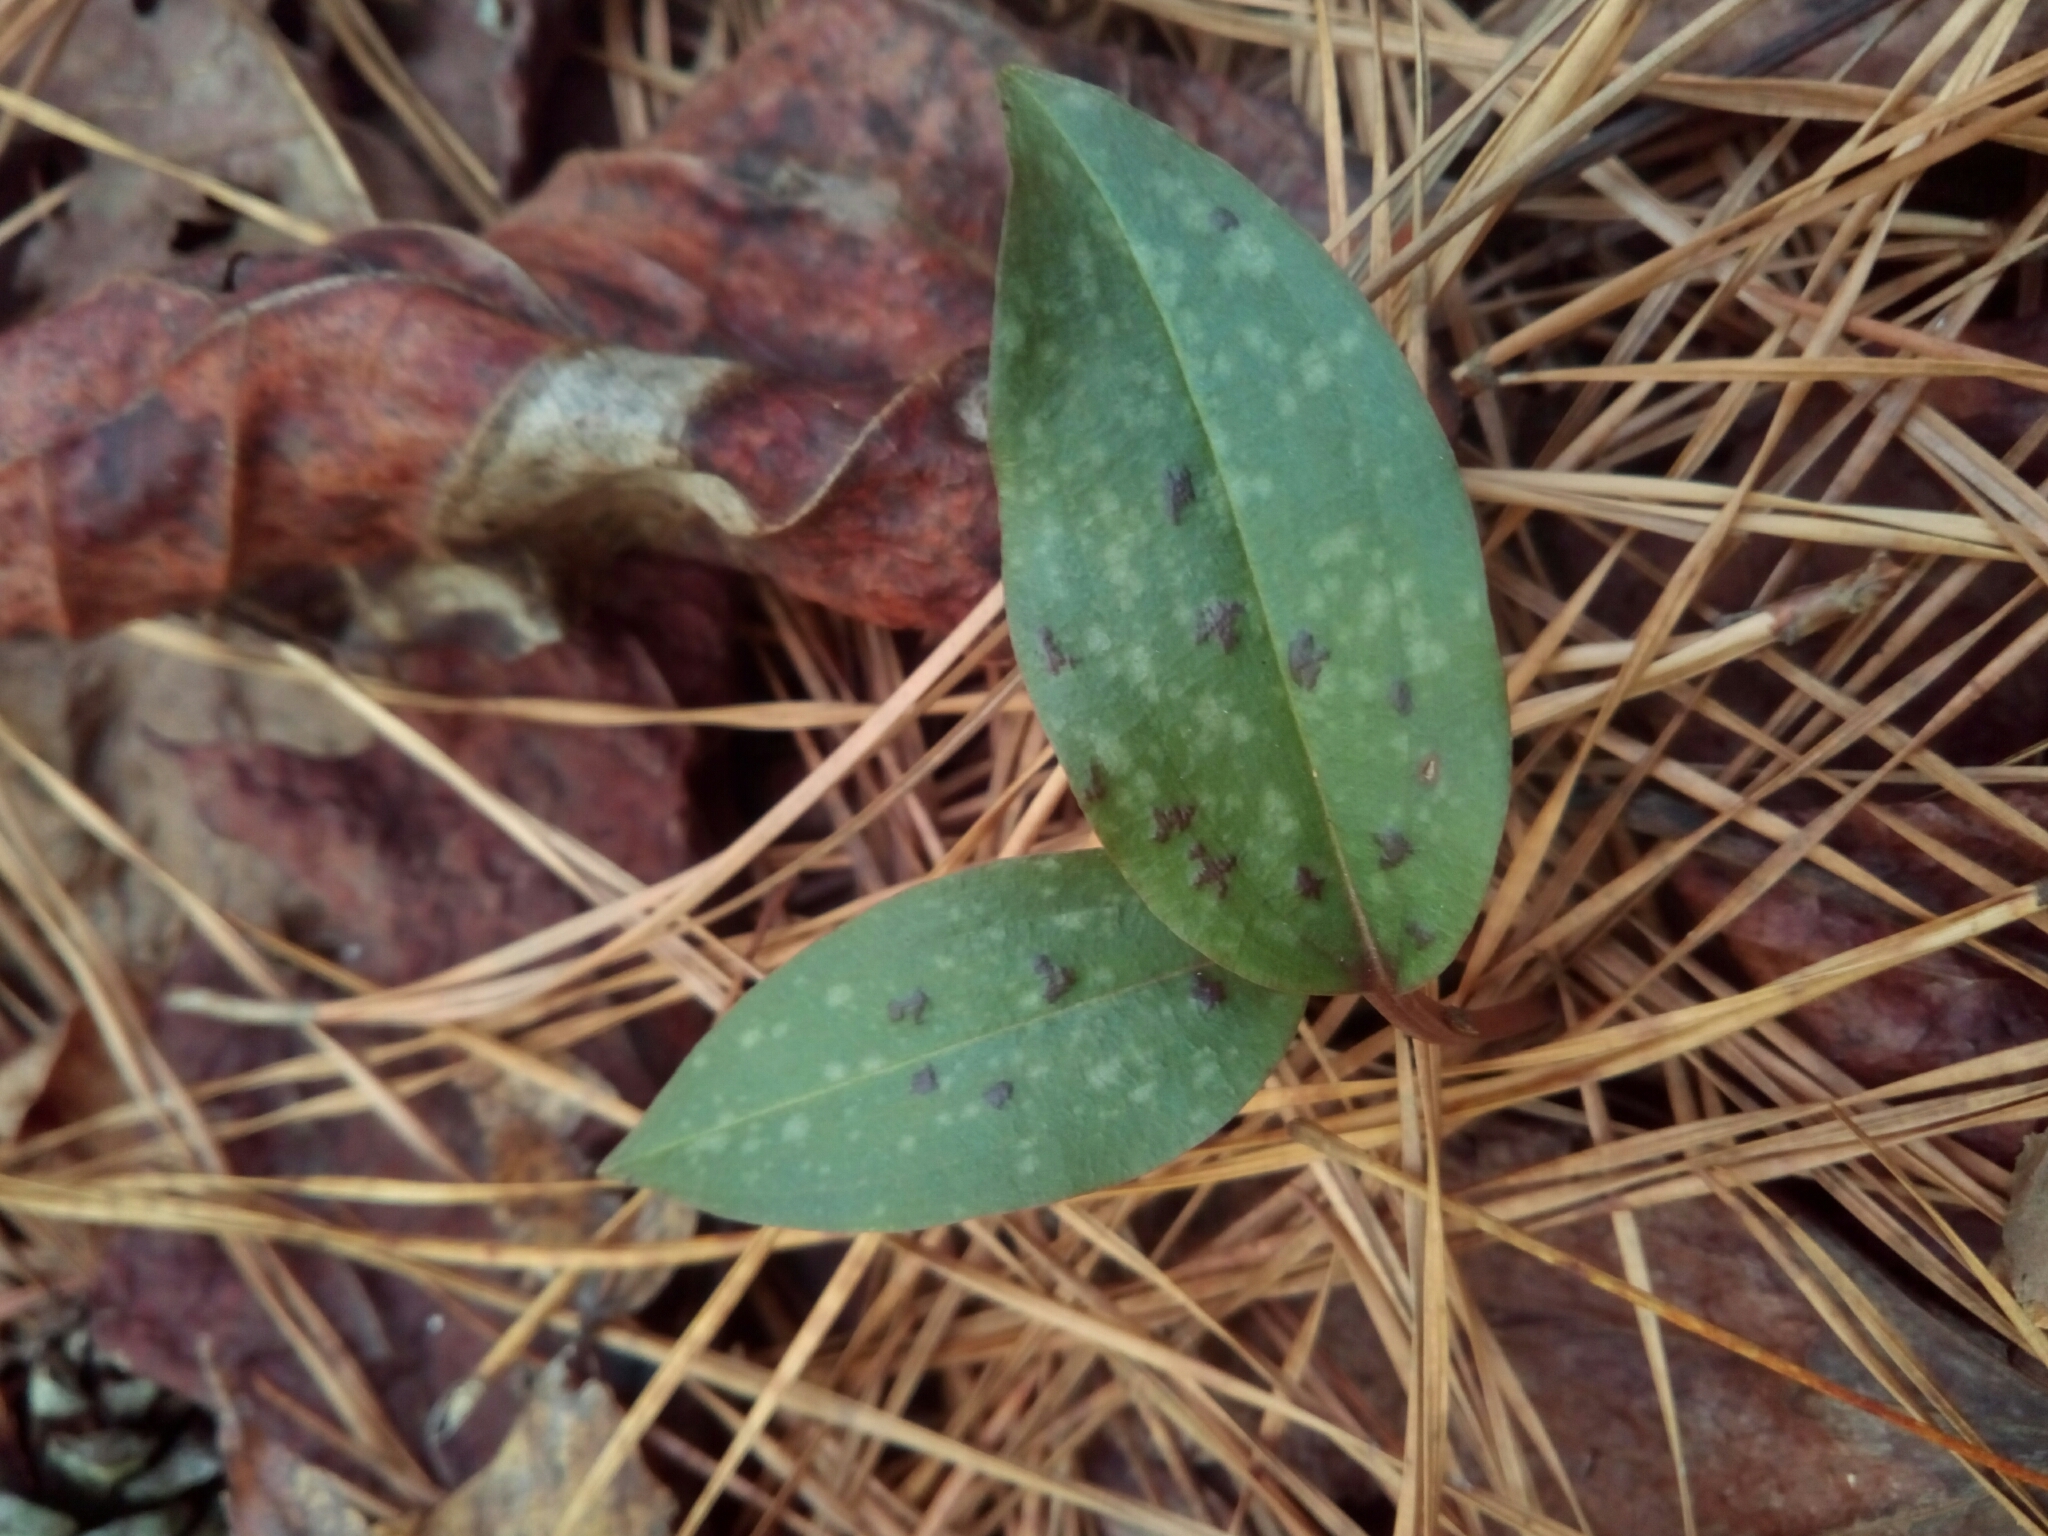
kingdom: Plantae
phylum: Tracheophyta
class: Liliopsida
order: Asparagales
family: Orchidaceae
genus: Tipularia
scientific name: Tipularia discolor
